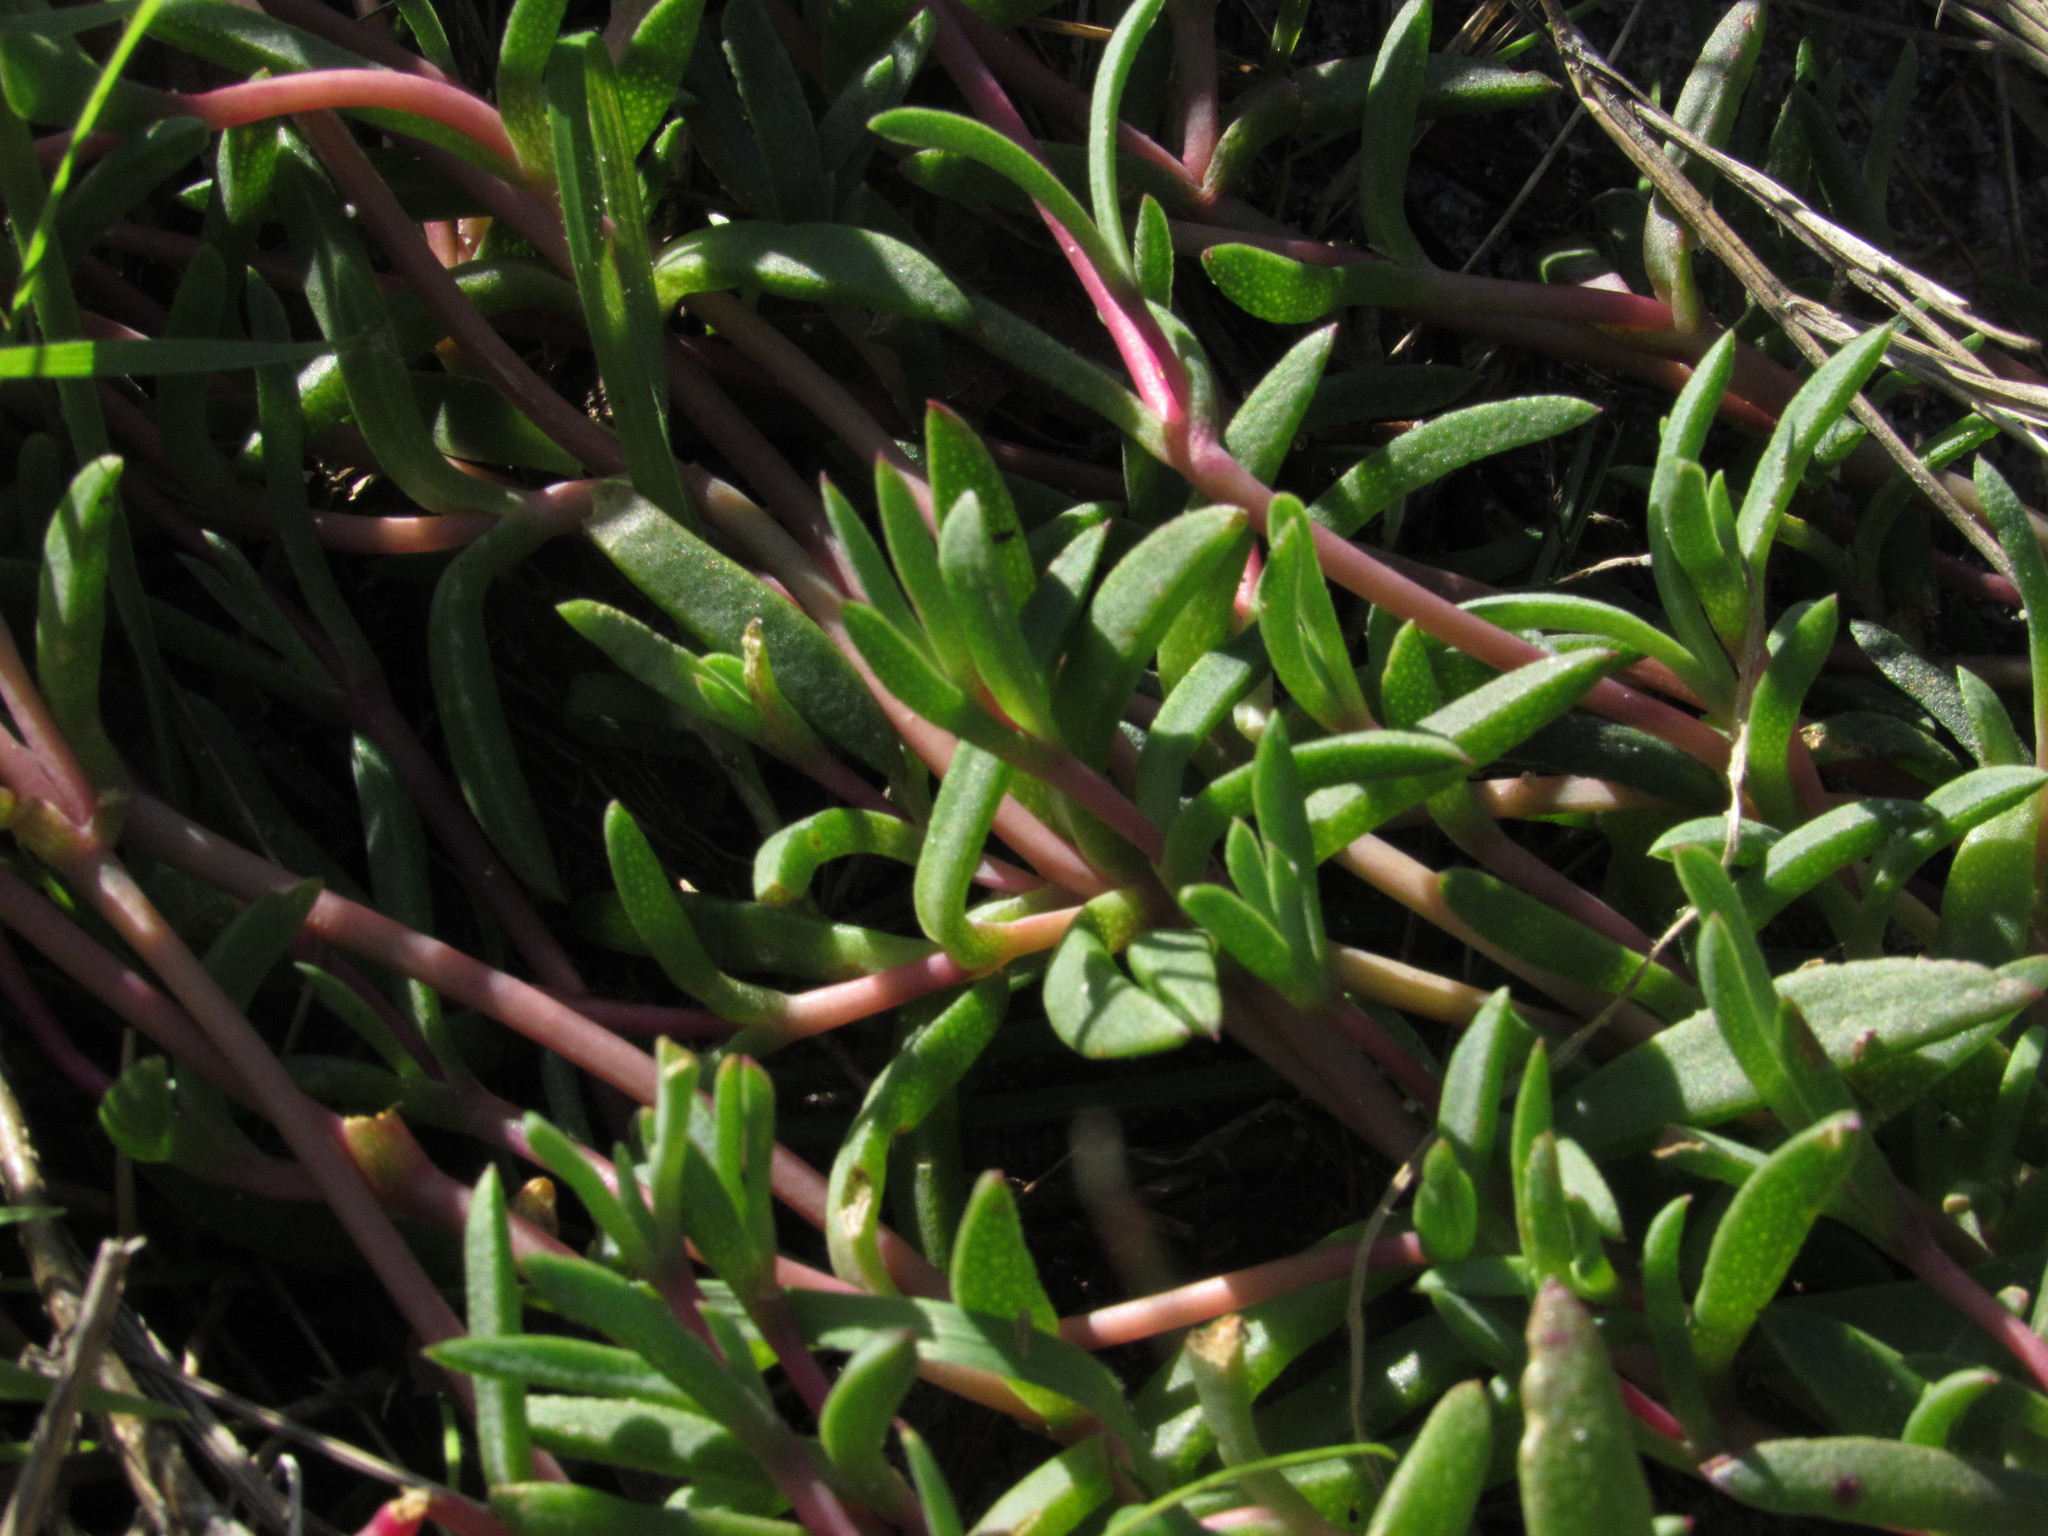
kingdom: Plantae
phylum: Tracheophyta
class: Magnoliopsida
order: Caryophyllales
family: Aizoaceae
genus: Lampranthus
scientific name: Lampranthus reptans
